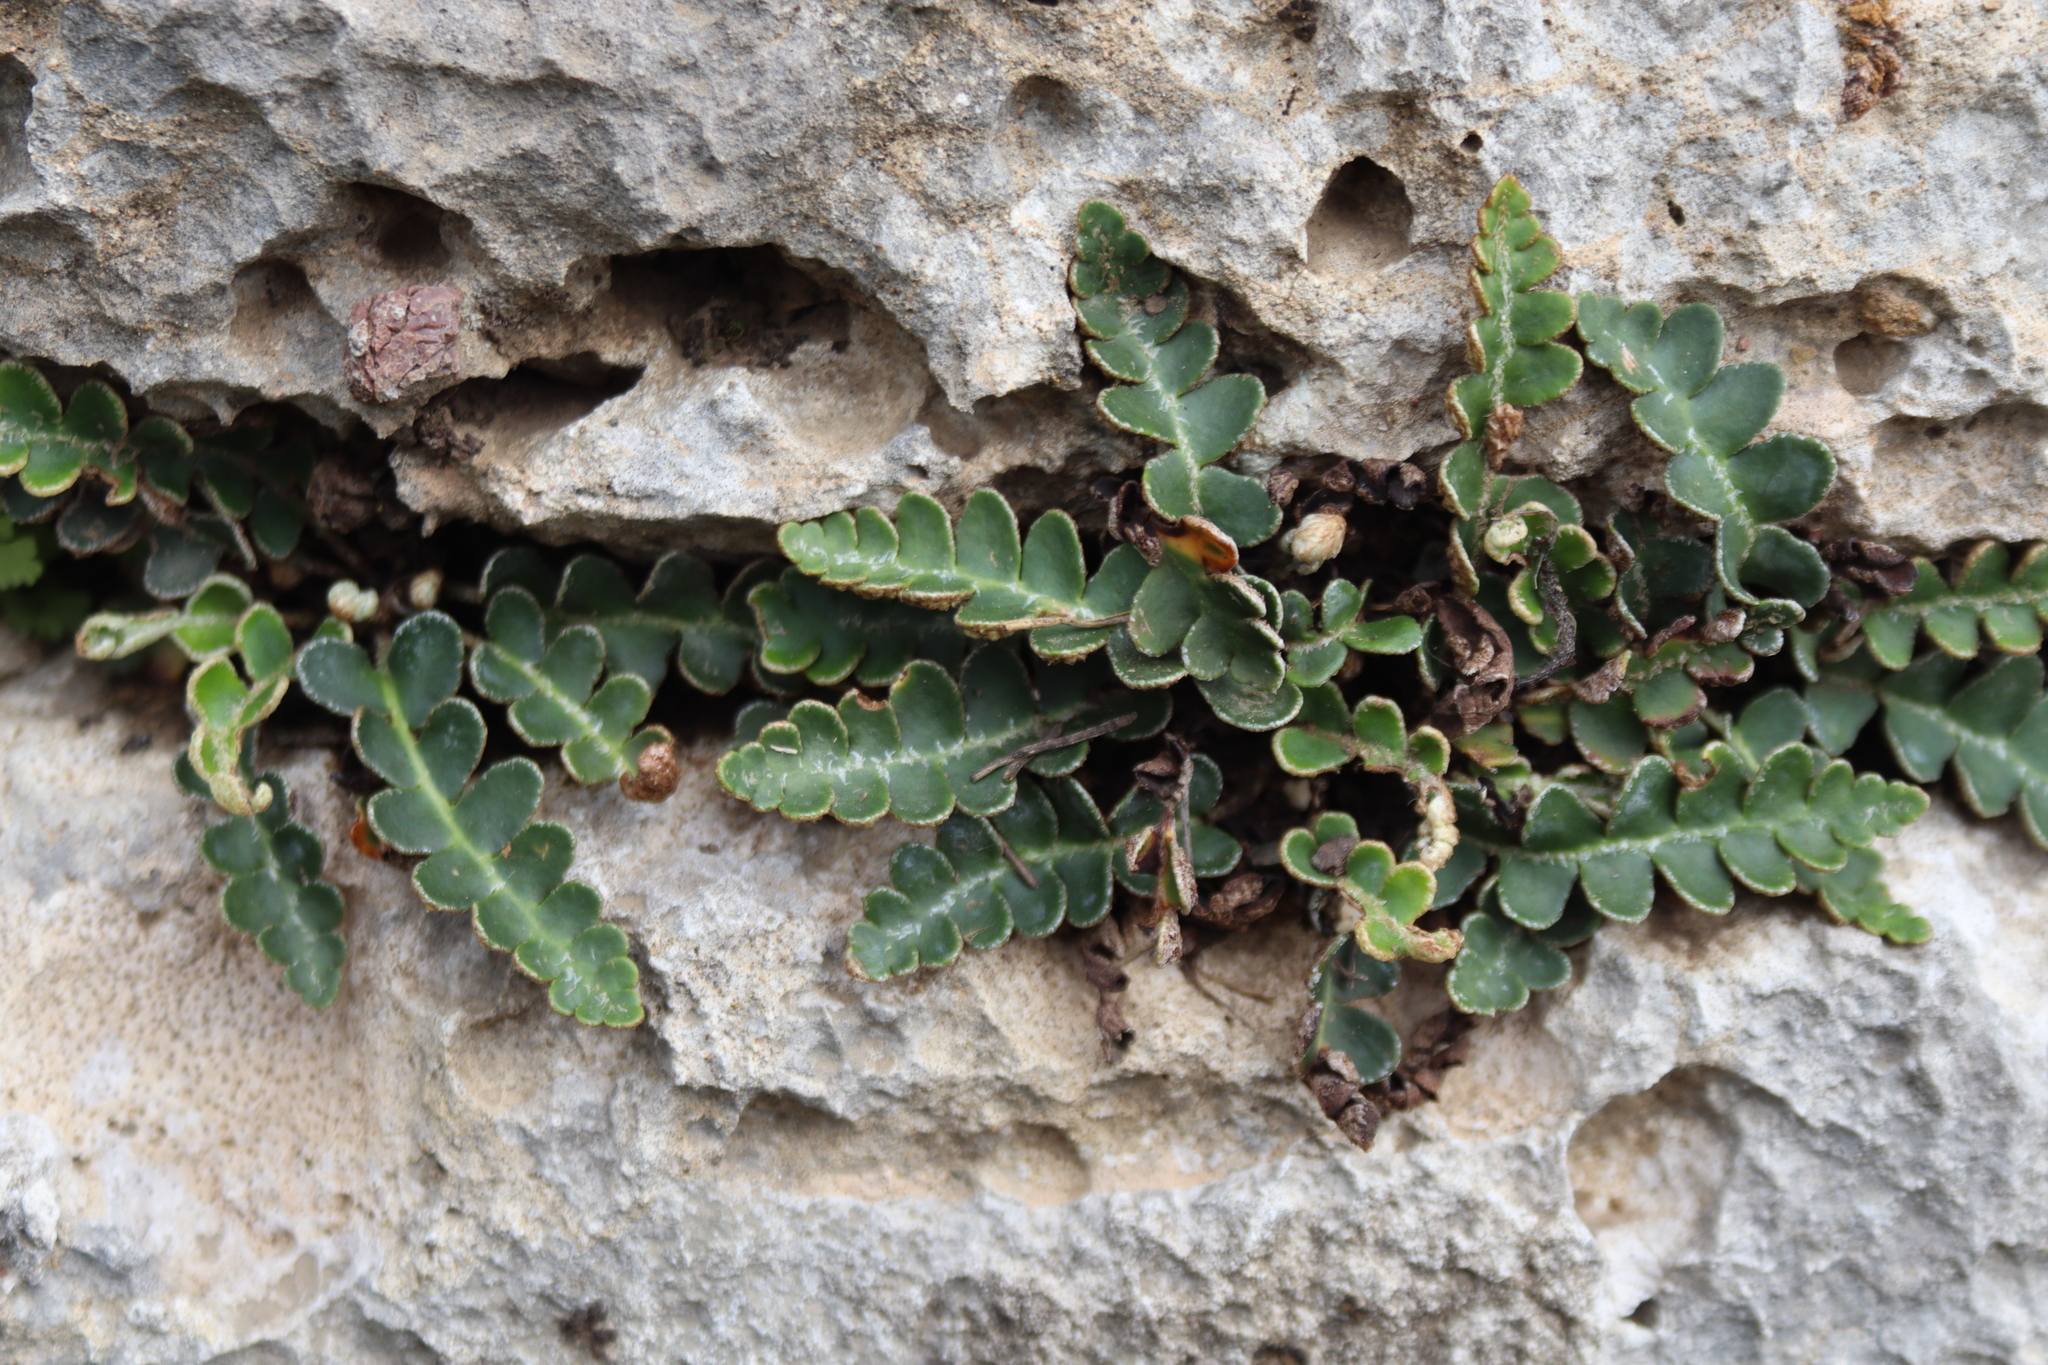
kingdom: Plantae
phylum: Tracheophyta
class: Polypodiopsida
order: Polypodiales
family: Aspleniaceae
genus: Asplenium
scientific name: Asplenium ceterach
